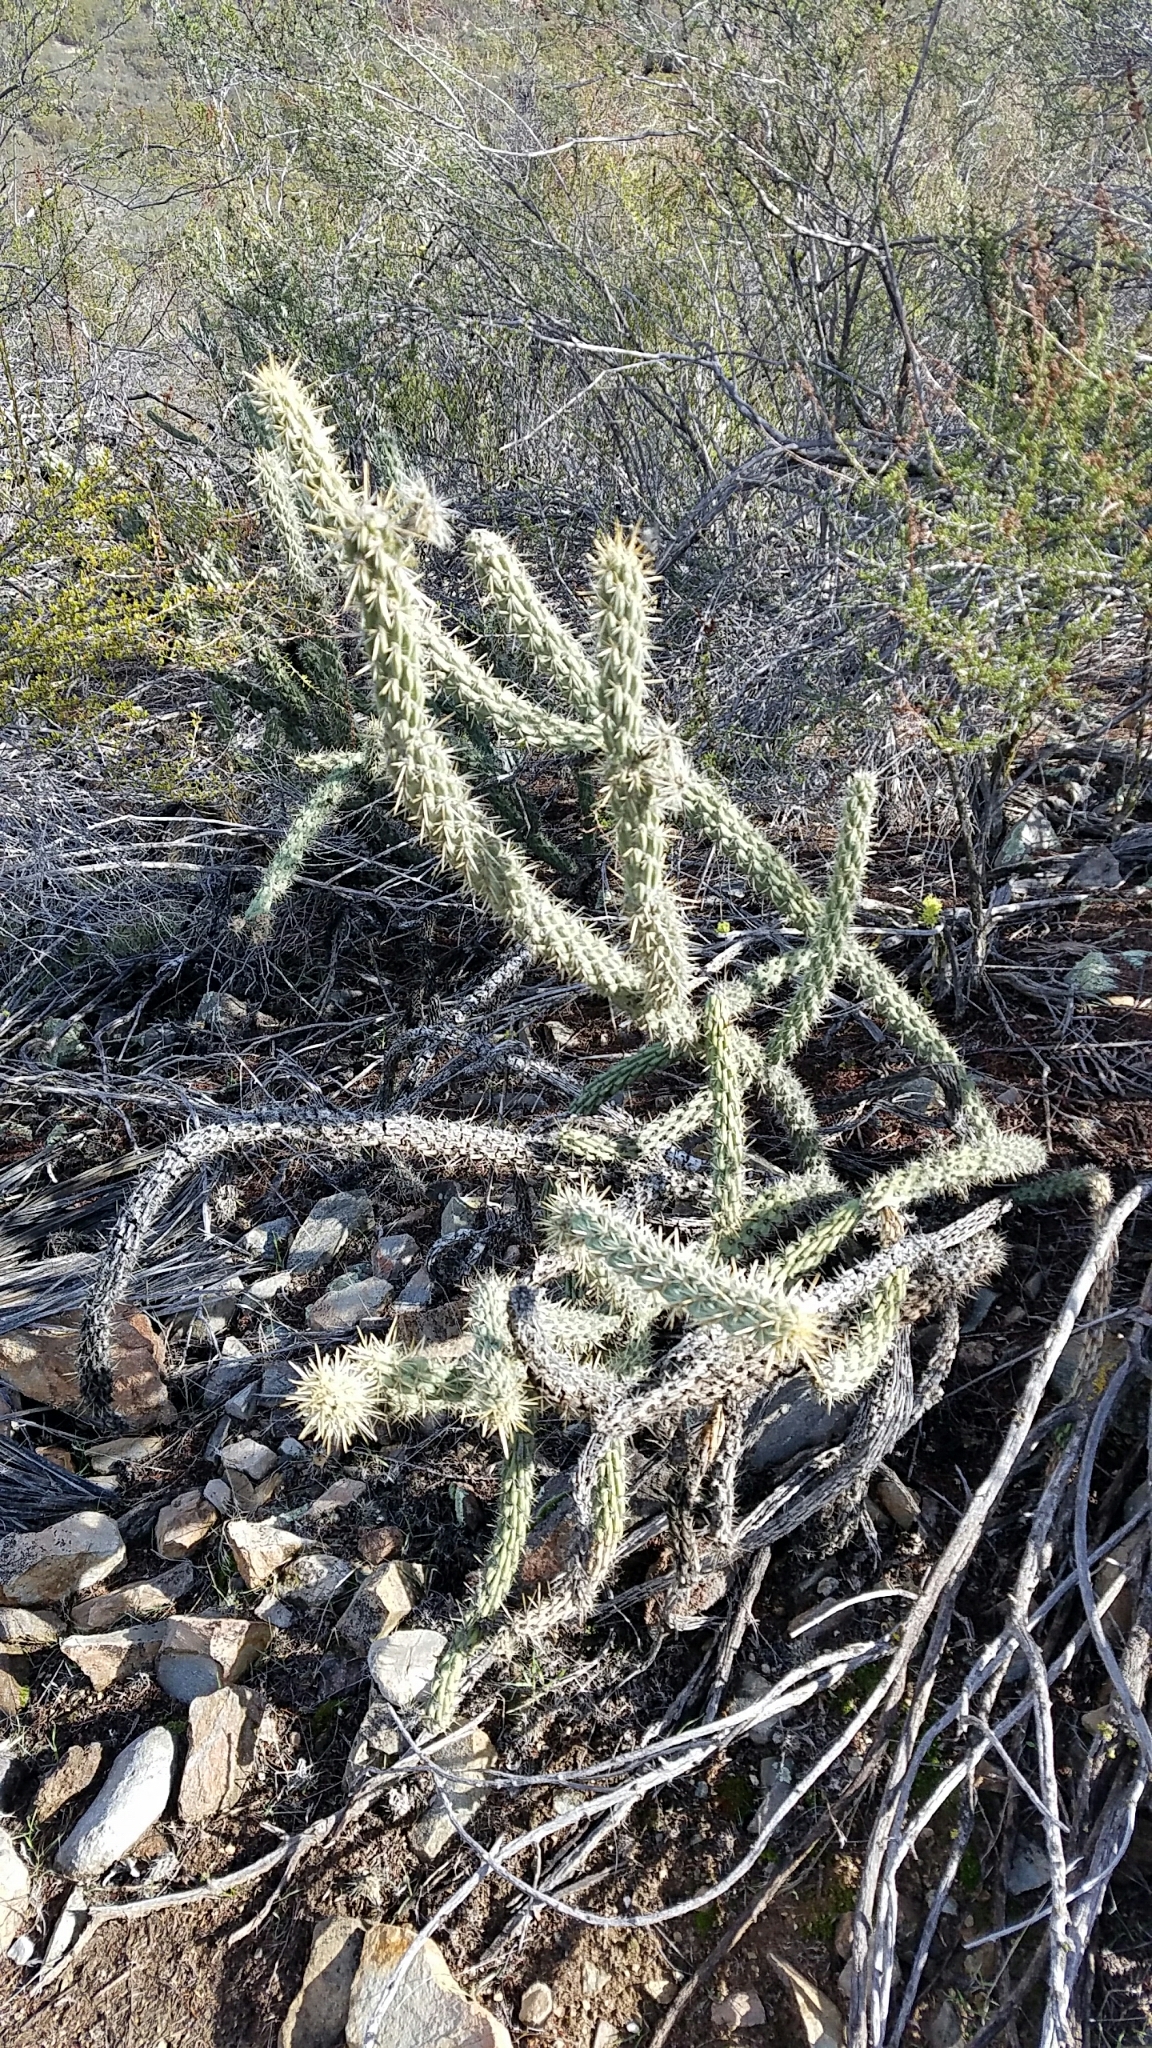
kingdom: Plantae
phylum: Tracheophyta
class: Magnoliopsida
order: Caryophyllales
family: Cactaceae
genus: Cylindropuntia
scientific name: Cylindropuntia bernardina
